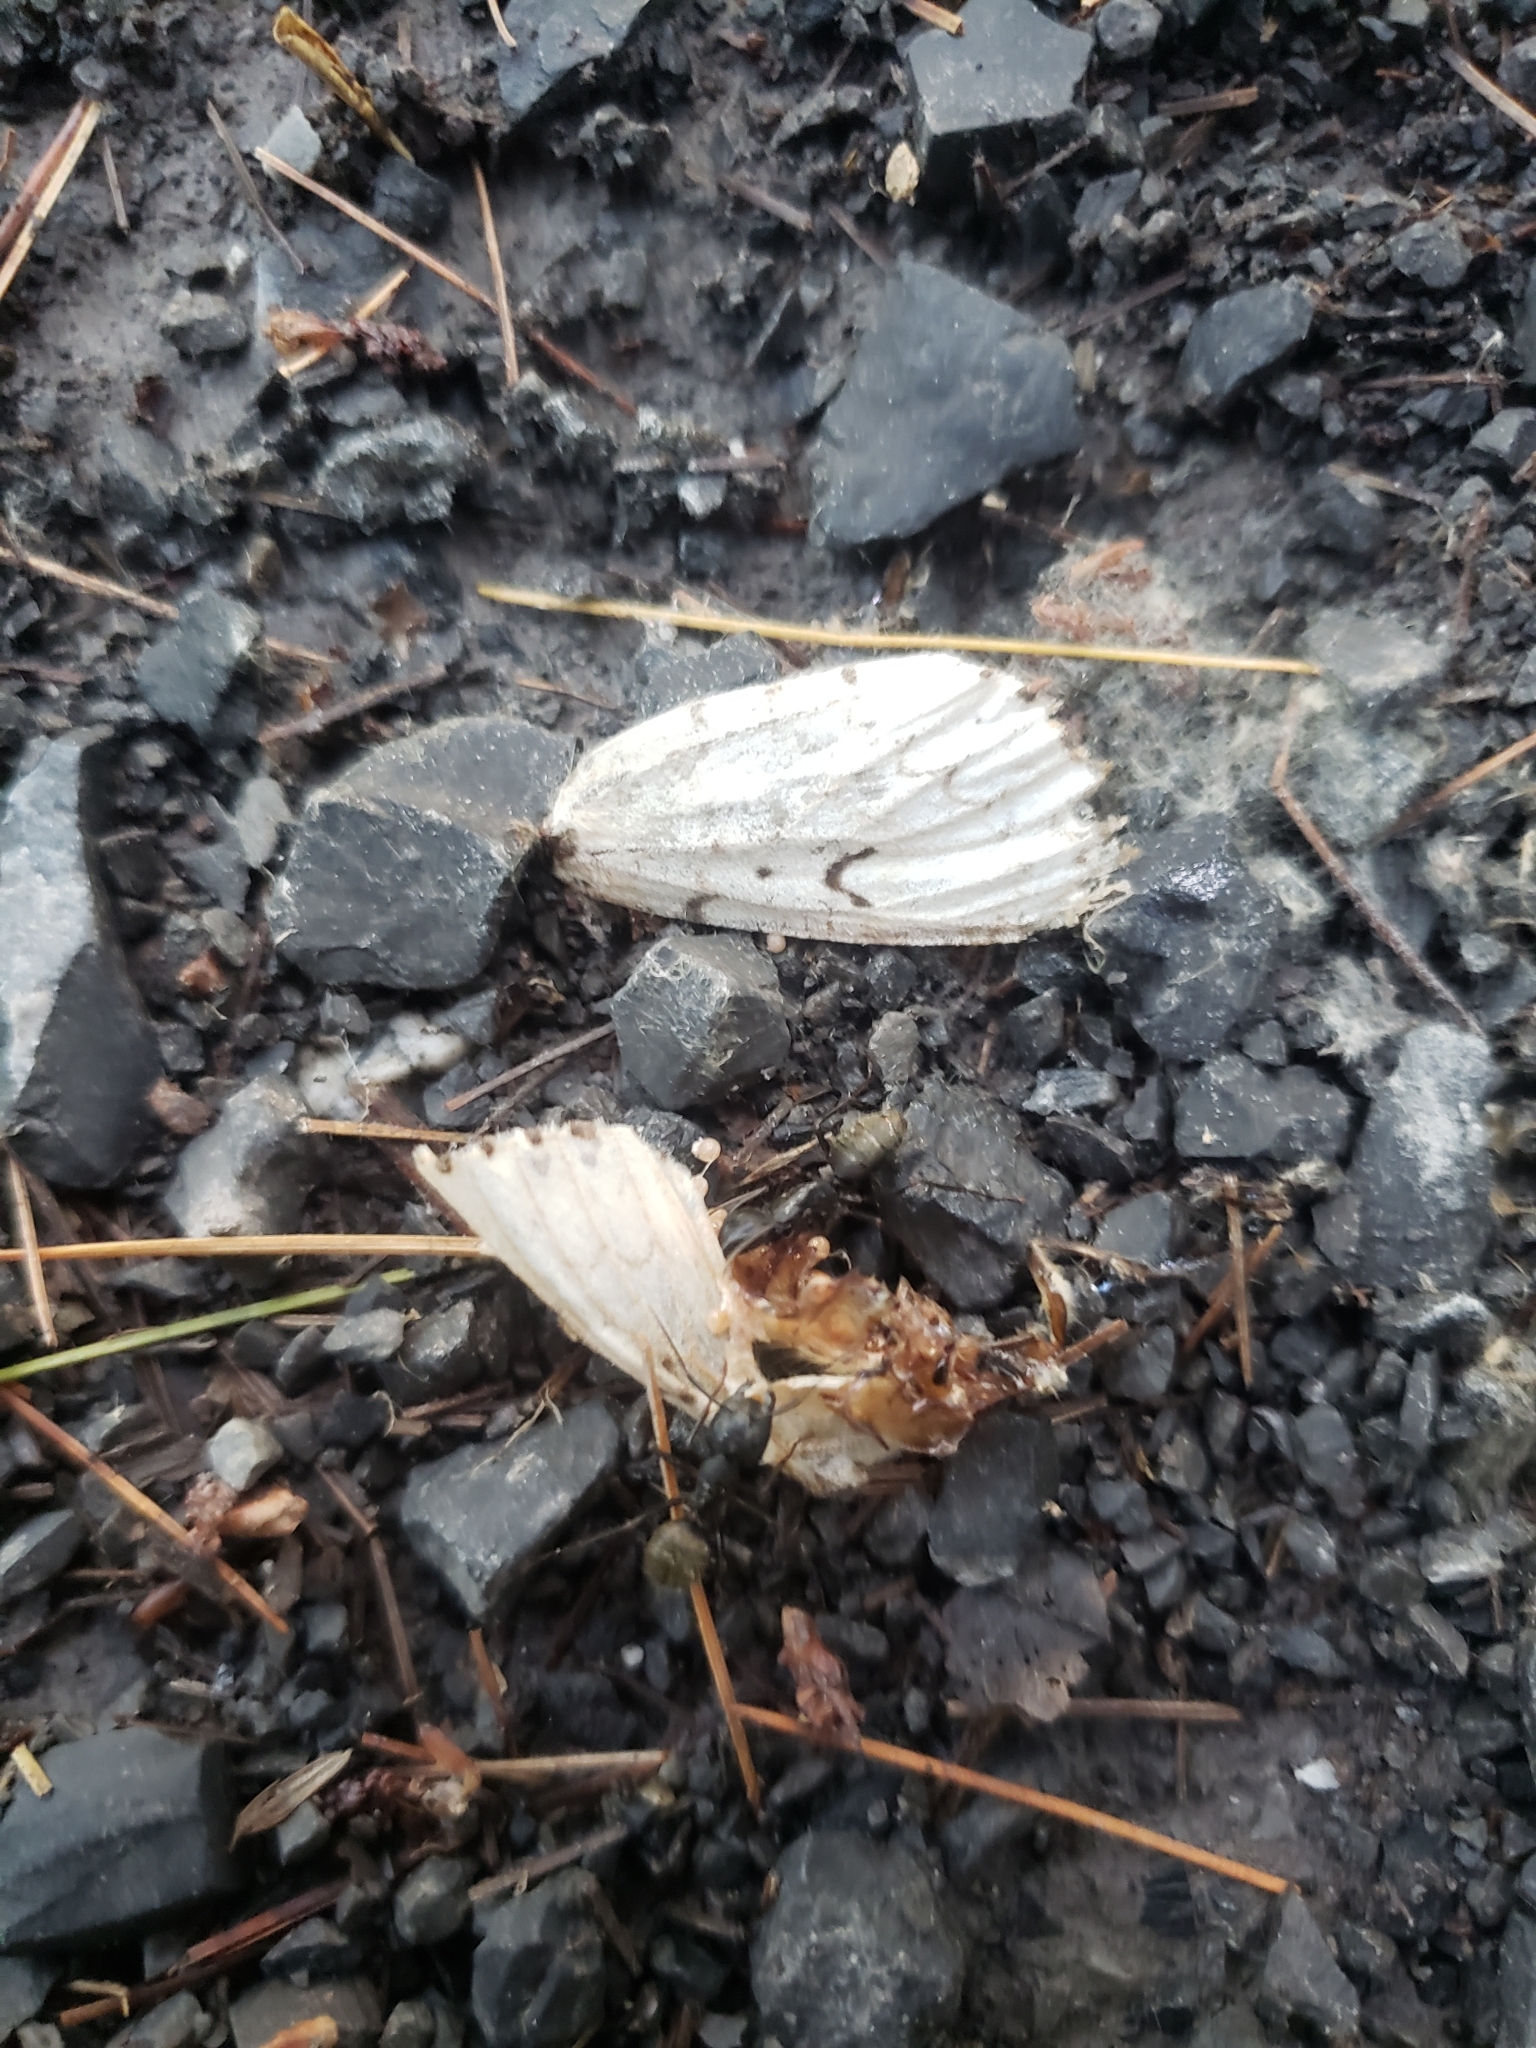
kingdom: Animalia
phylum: Arthropoda
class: Insecta
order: Lepidoptera
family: Erebidae
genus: Lymantria
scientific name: Lymantria dispar
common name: Gypsy moth
